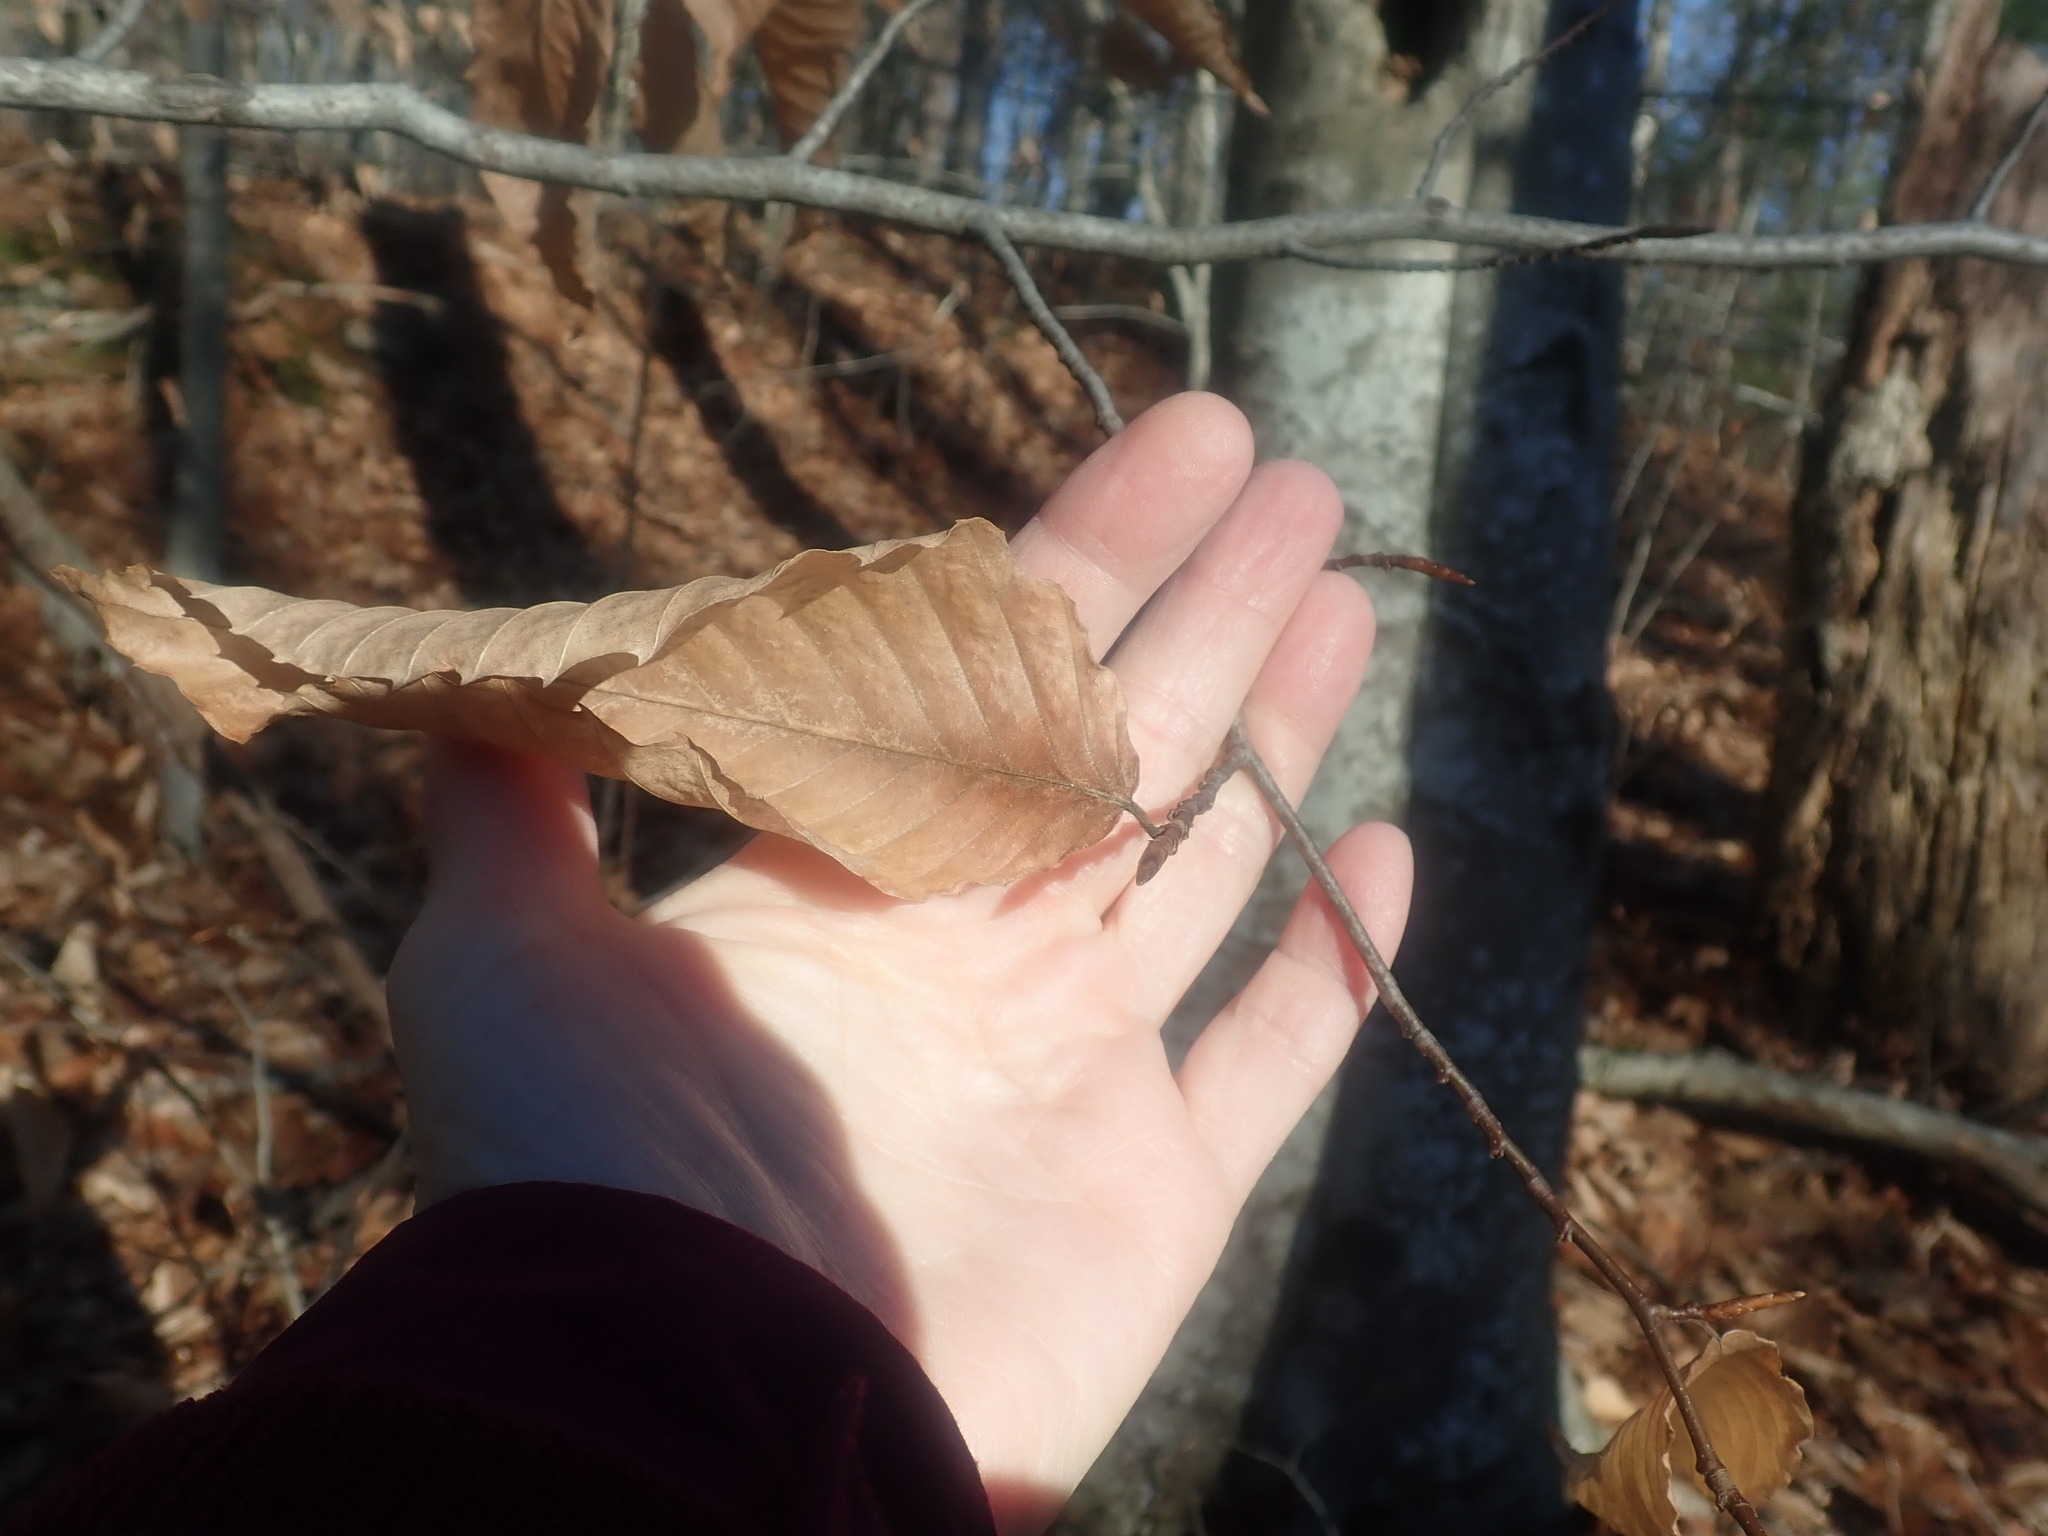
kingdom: Plantae
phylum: Tracheophyta
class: Magnoliopsida
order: Fagales
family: Fagaceae
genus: Fagus
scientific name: Fagus grandifolia
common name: American beech
